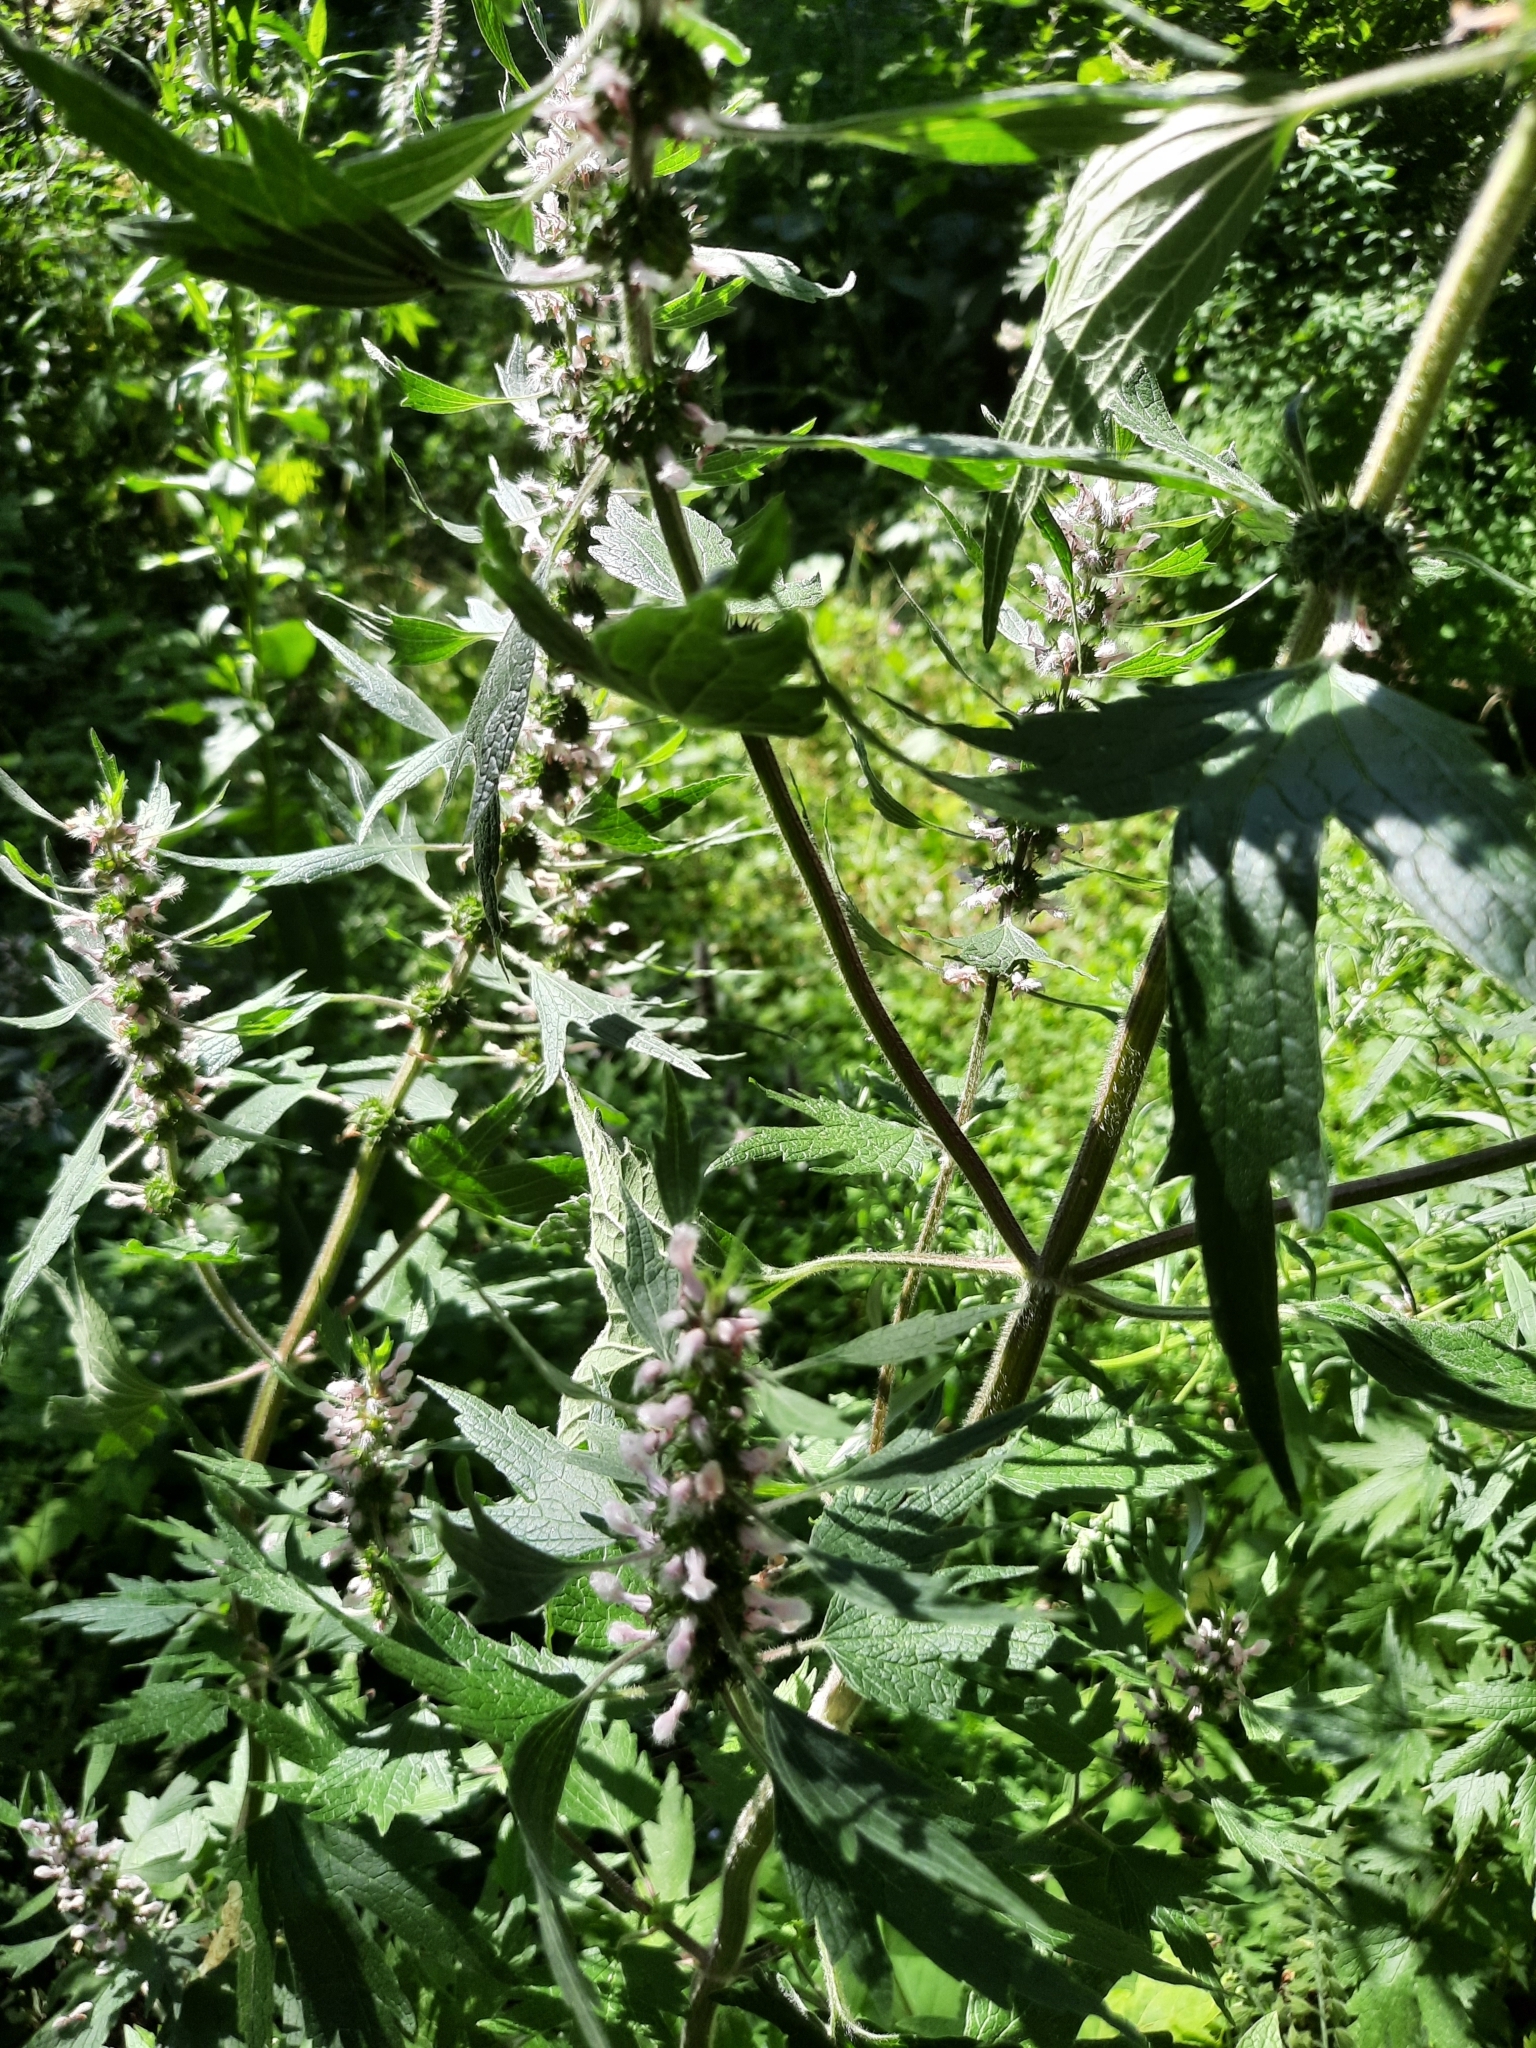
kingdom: Plantae
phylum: Tracheophyta
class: Magnoliopsida
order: Lamiales
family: Lamiaceae
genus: Leonurus
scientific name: Leonurus quinquelobatus
